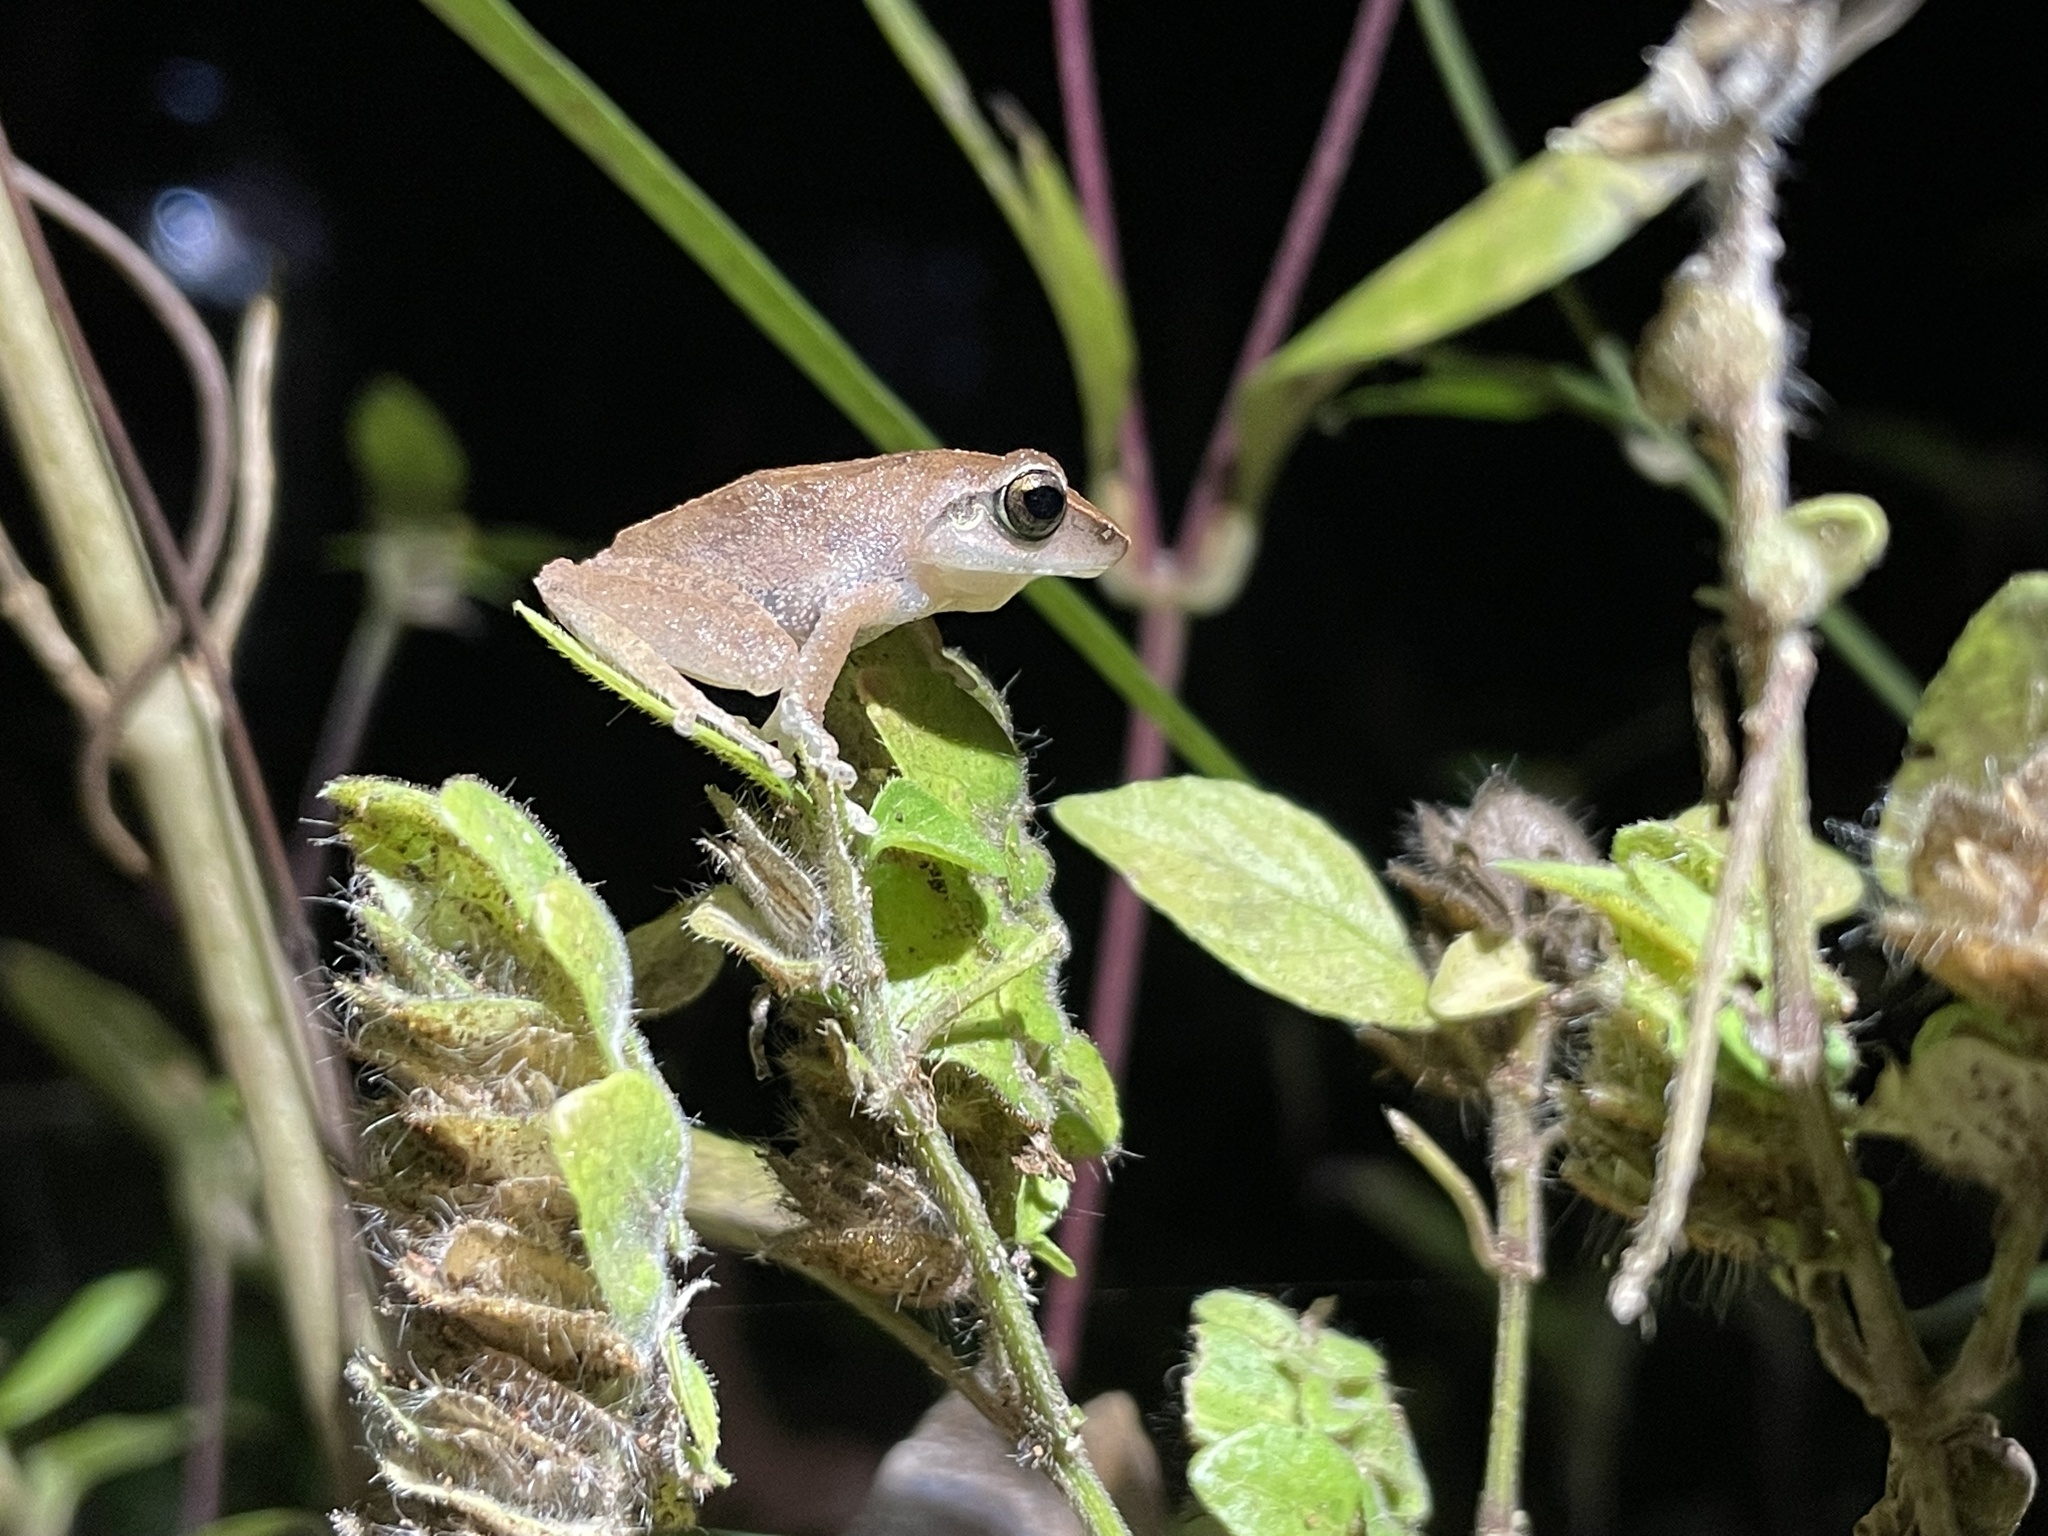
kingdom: Animalia
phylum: Chordata
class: Amphibia
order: Anura
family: Rhacophoridae
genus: Pseudophilautus
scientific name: Pseudophilautus amboli
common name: Amboli bush frog
